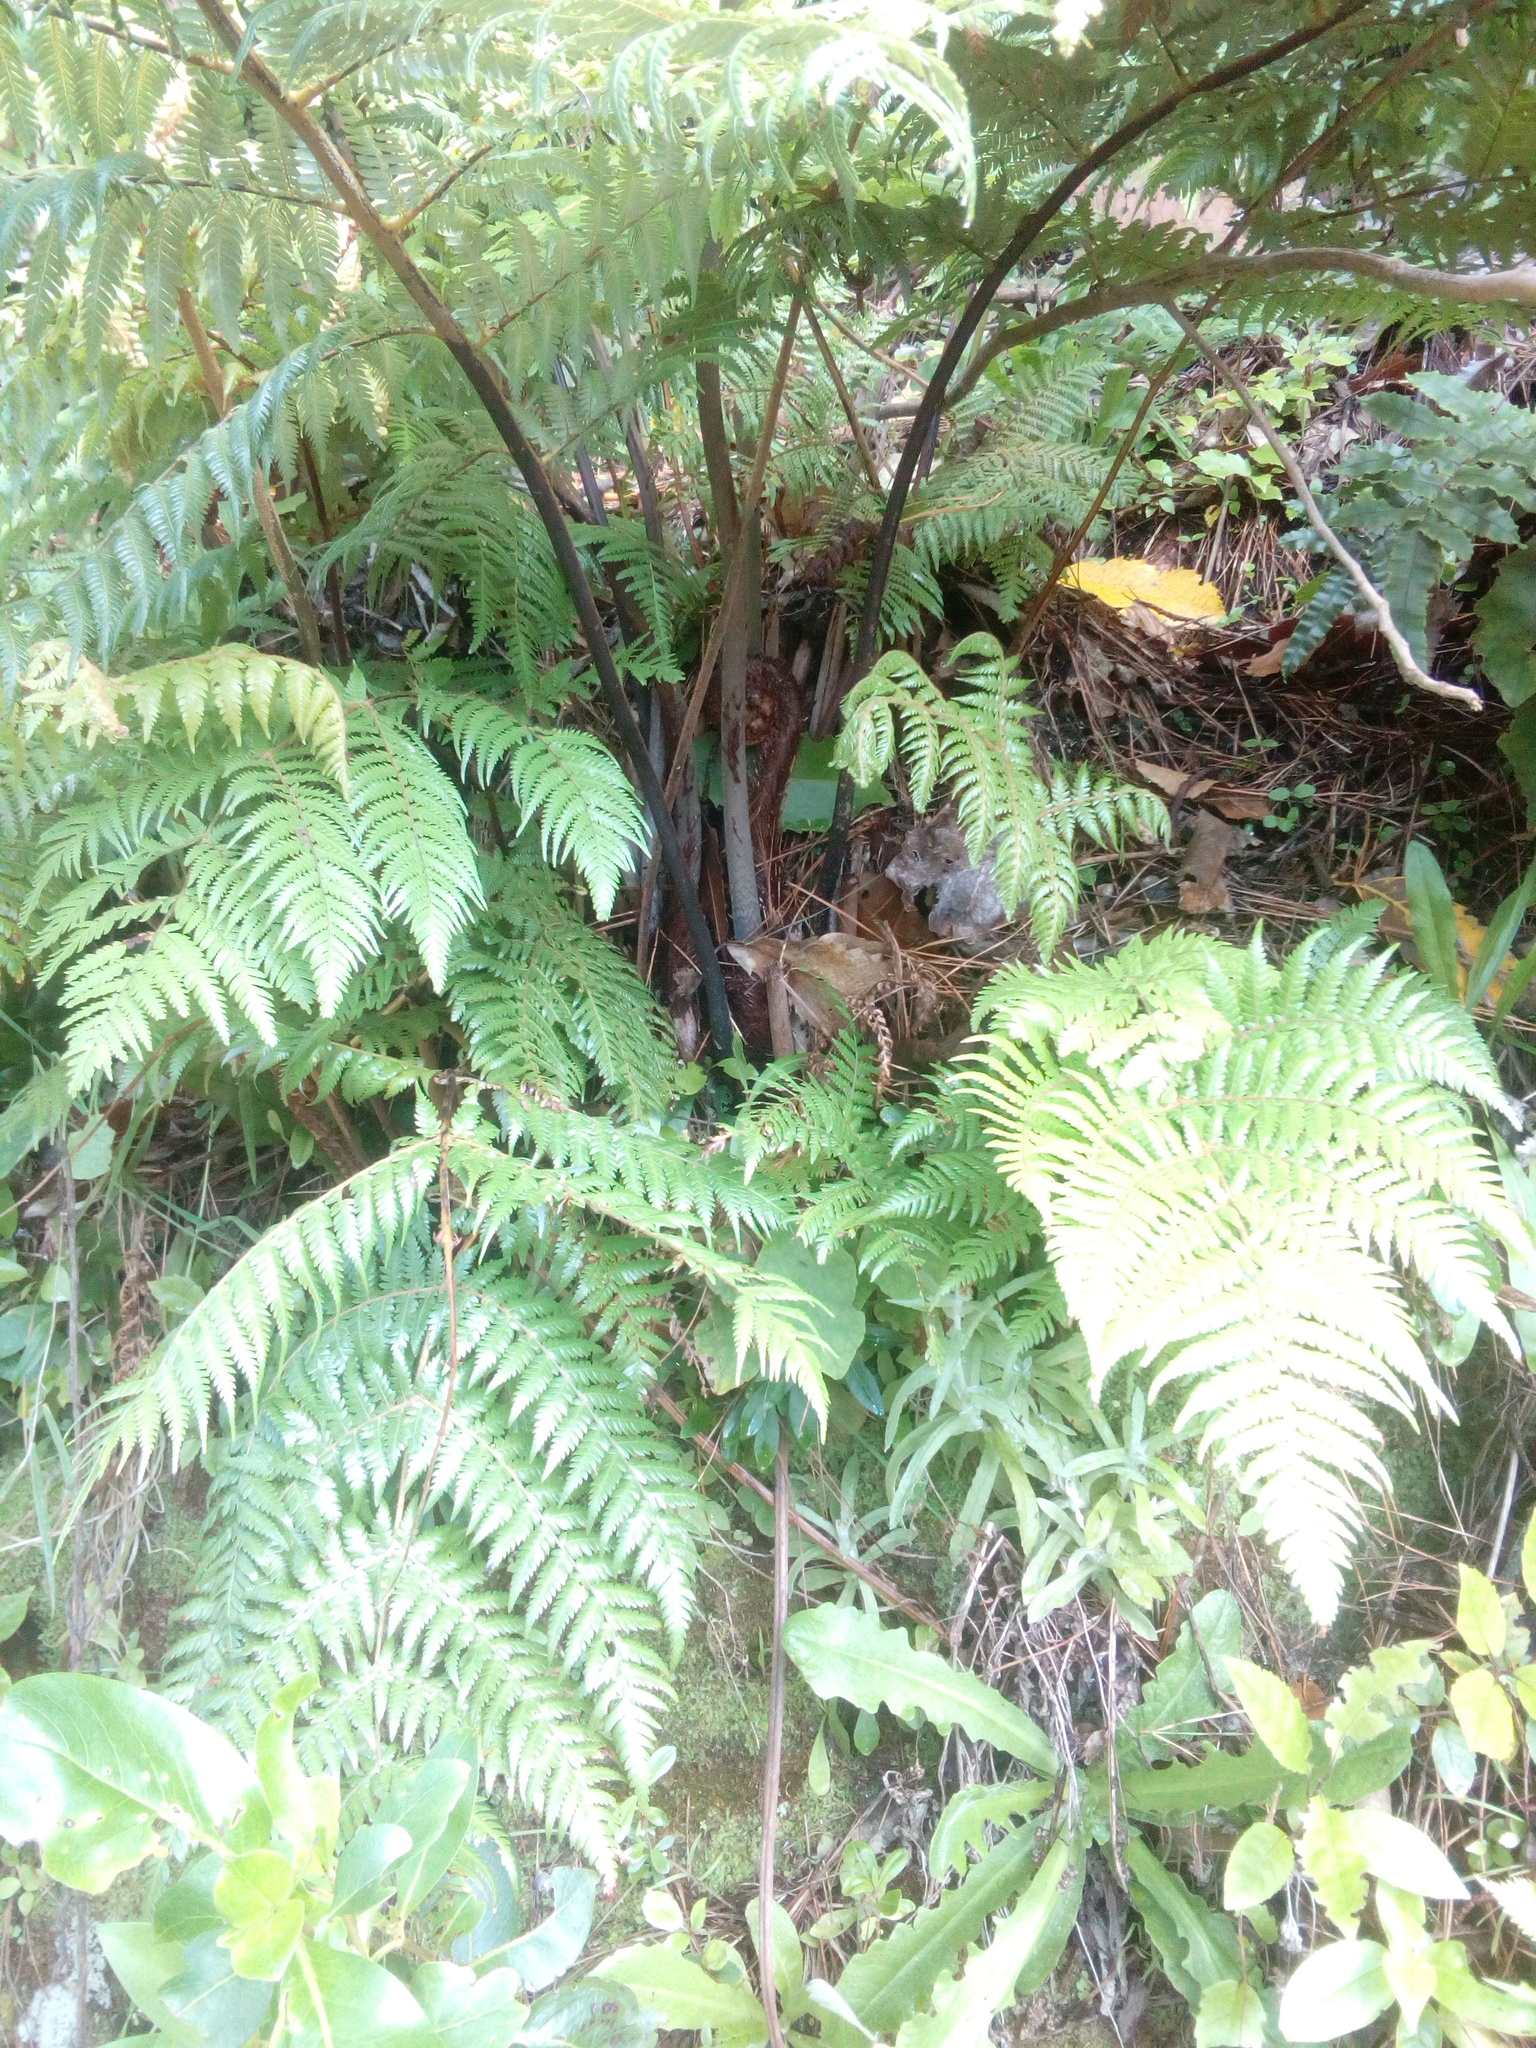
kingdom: Plantae
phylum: Tracheophyta
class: Polypodiopsida
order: Cyatheales
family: Cyatheaceae
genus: Alsophila
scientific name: Alsophila dealbata
